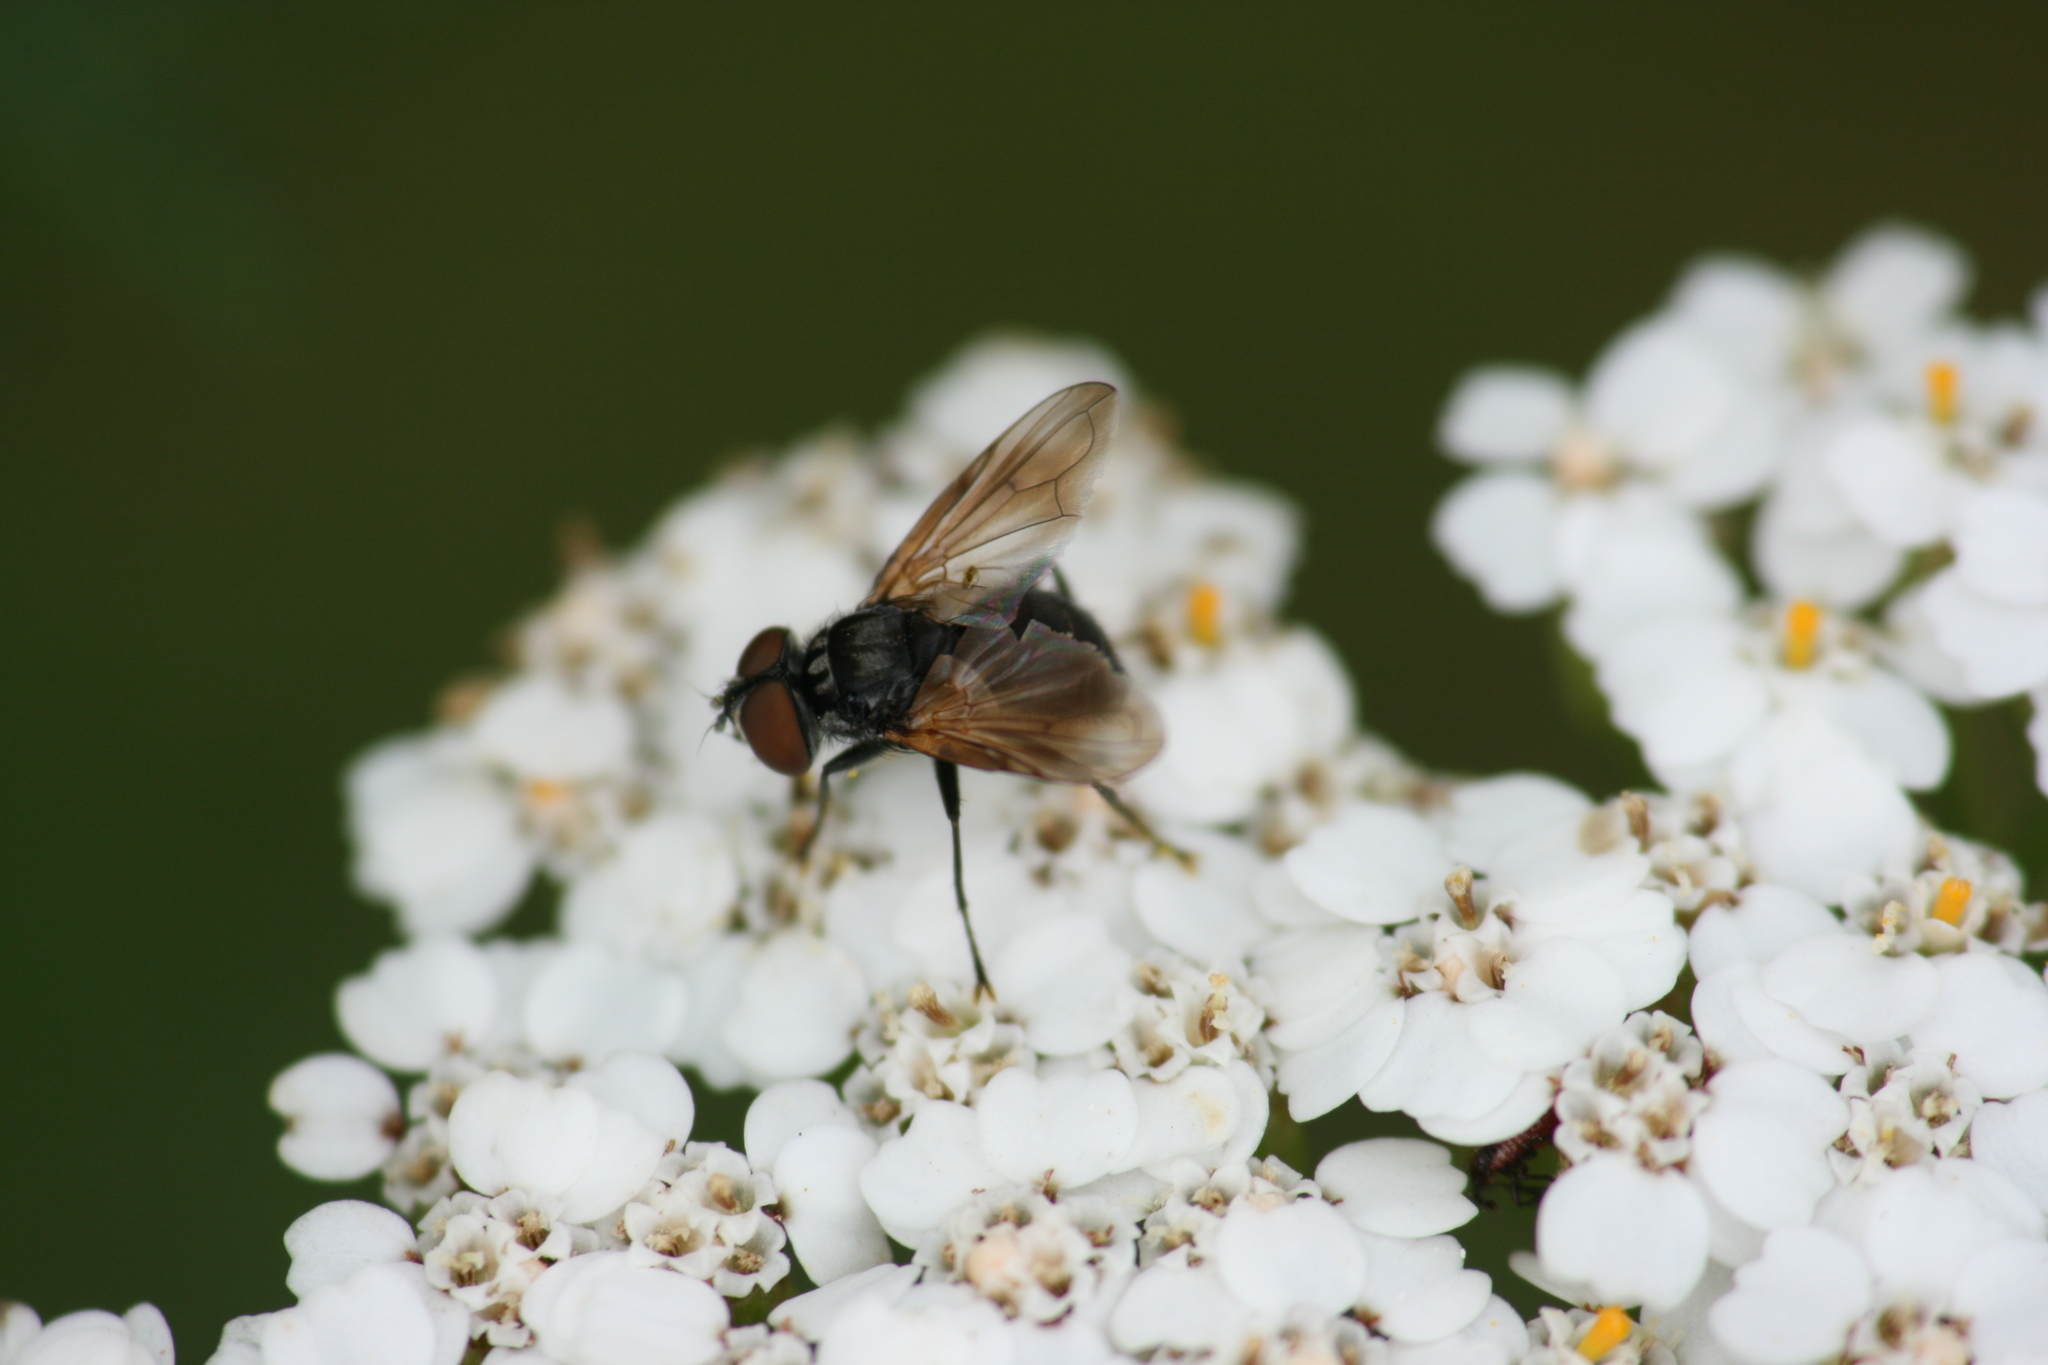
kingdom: Animalia
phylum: Arthropoda
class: Insecta
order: Diptera
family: Tachinidae
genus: Phasia
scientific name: Phasia obesa
